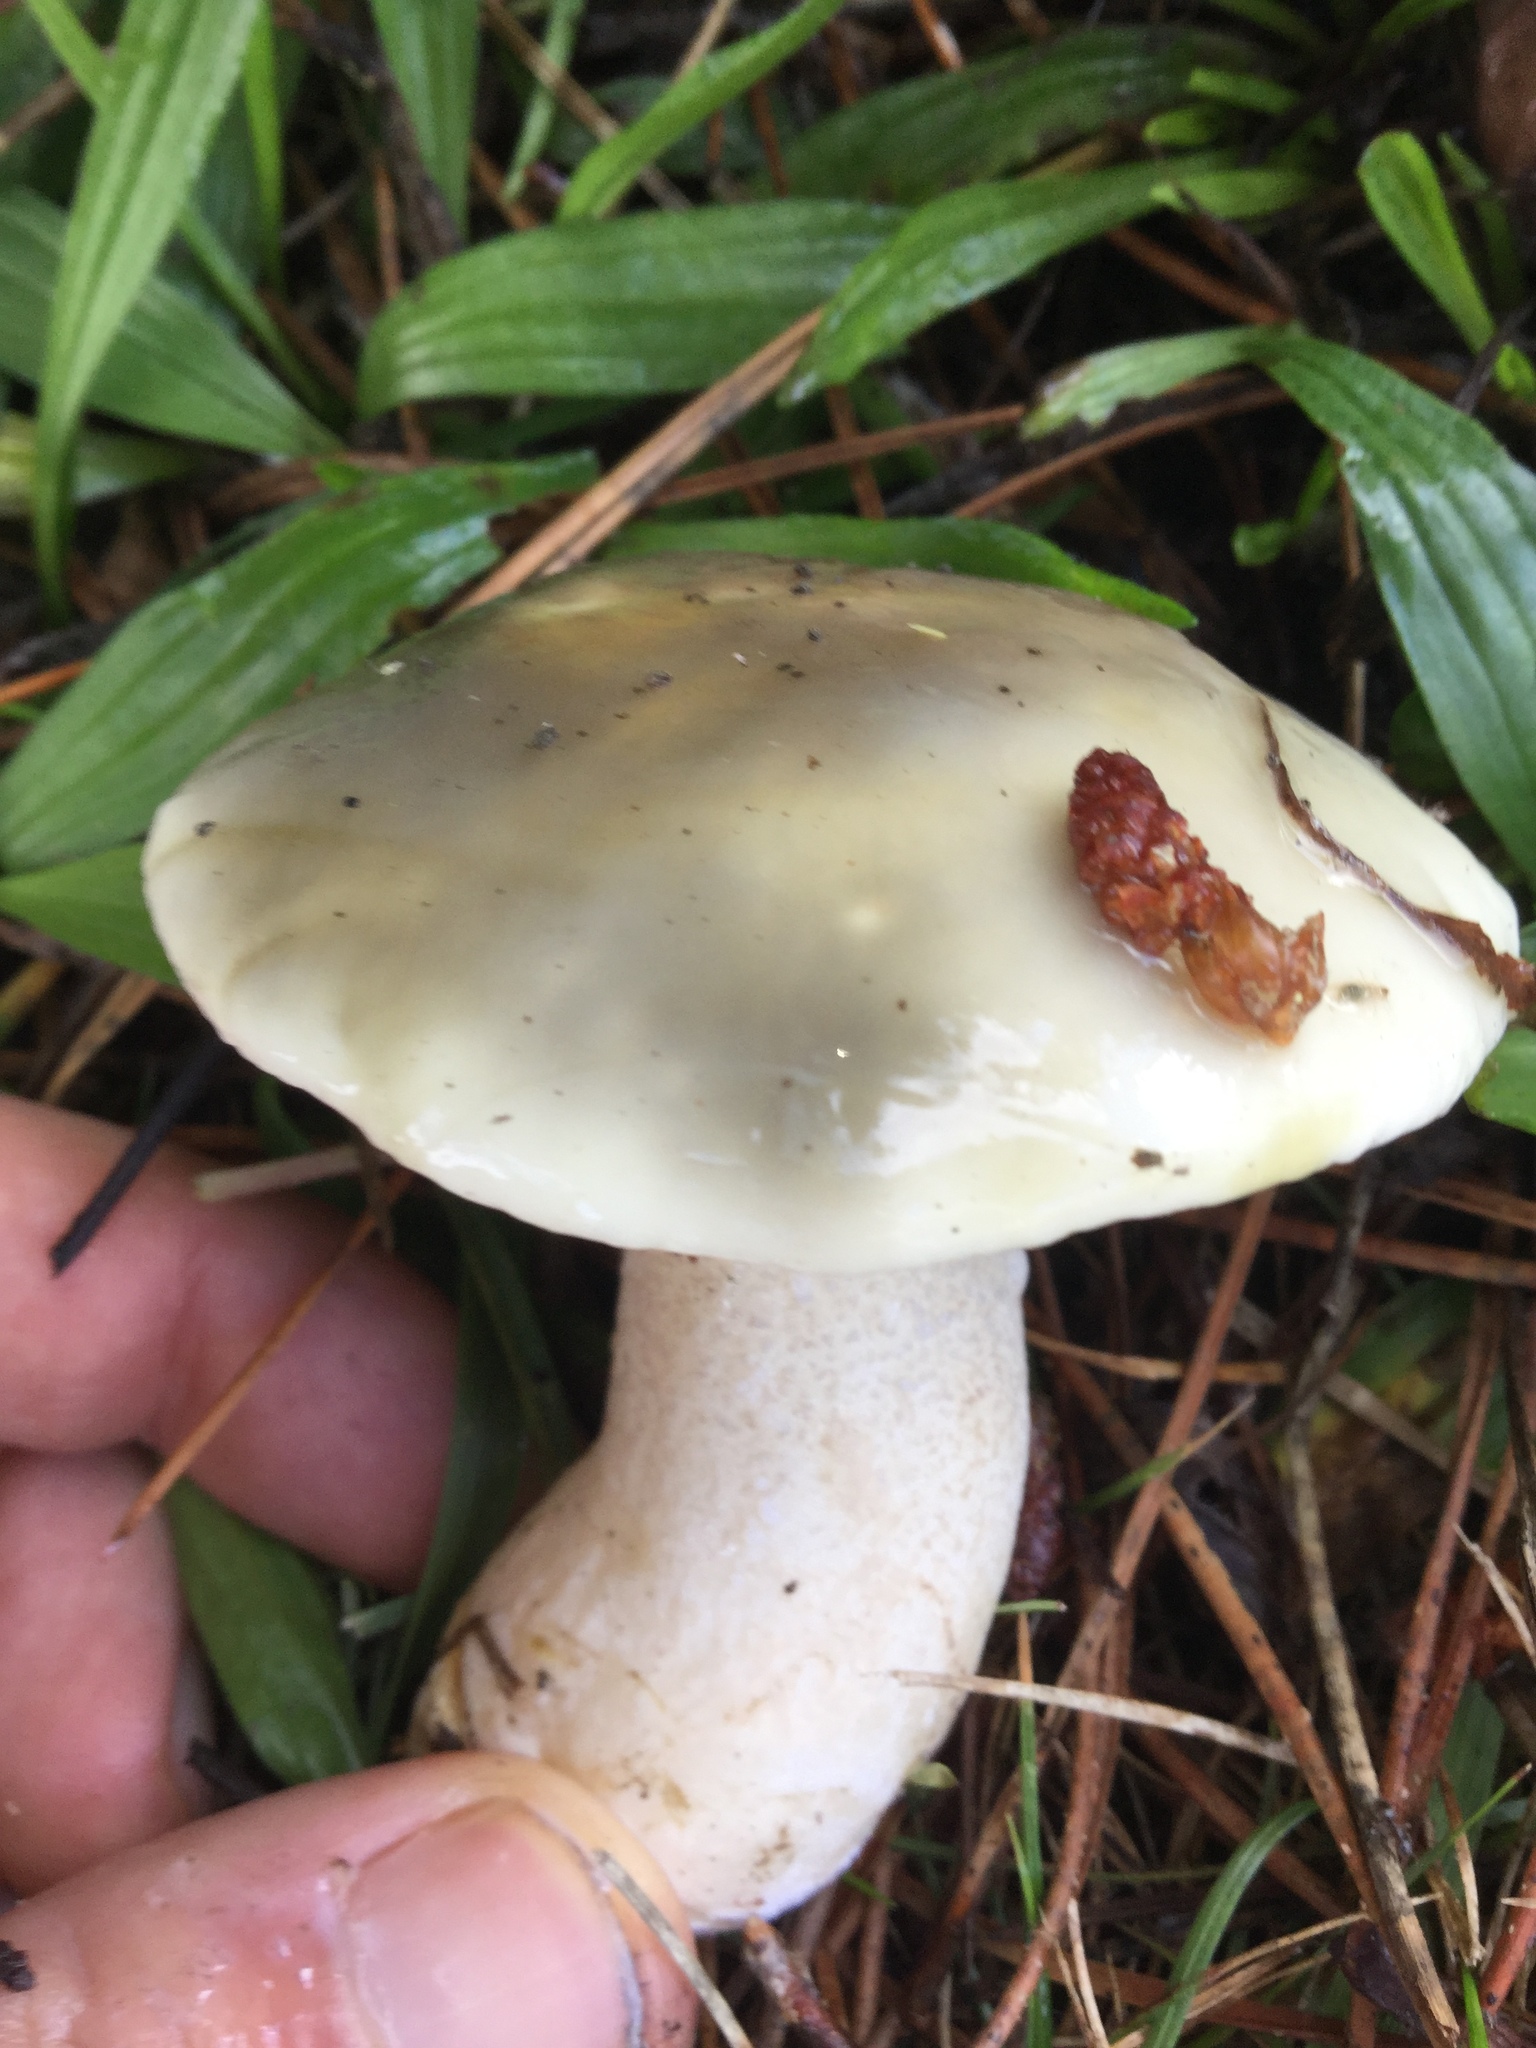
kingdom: Fungi
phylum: Basidiomycota
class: Agaricomycetes
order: Boletales
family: Suillaceae
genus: Suillus
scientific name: Suillus pungens
